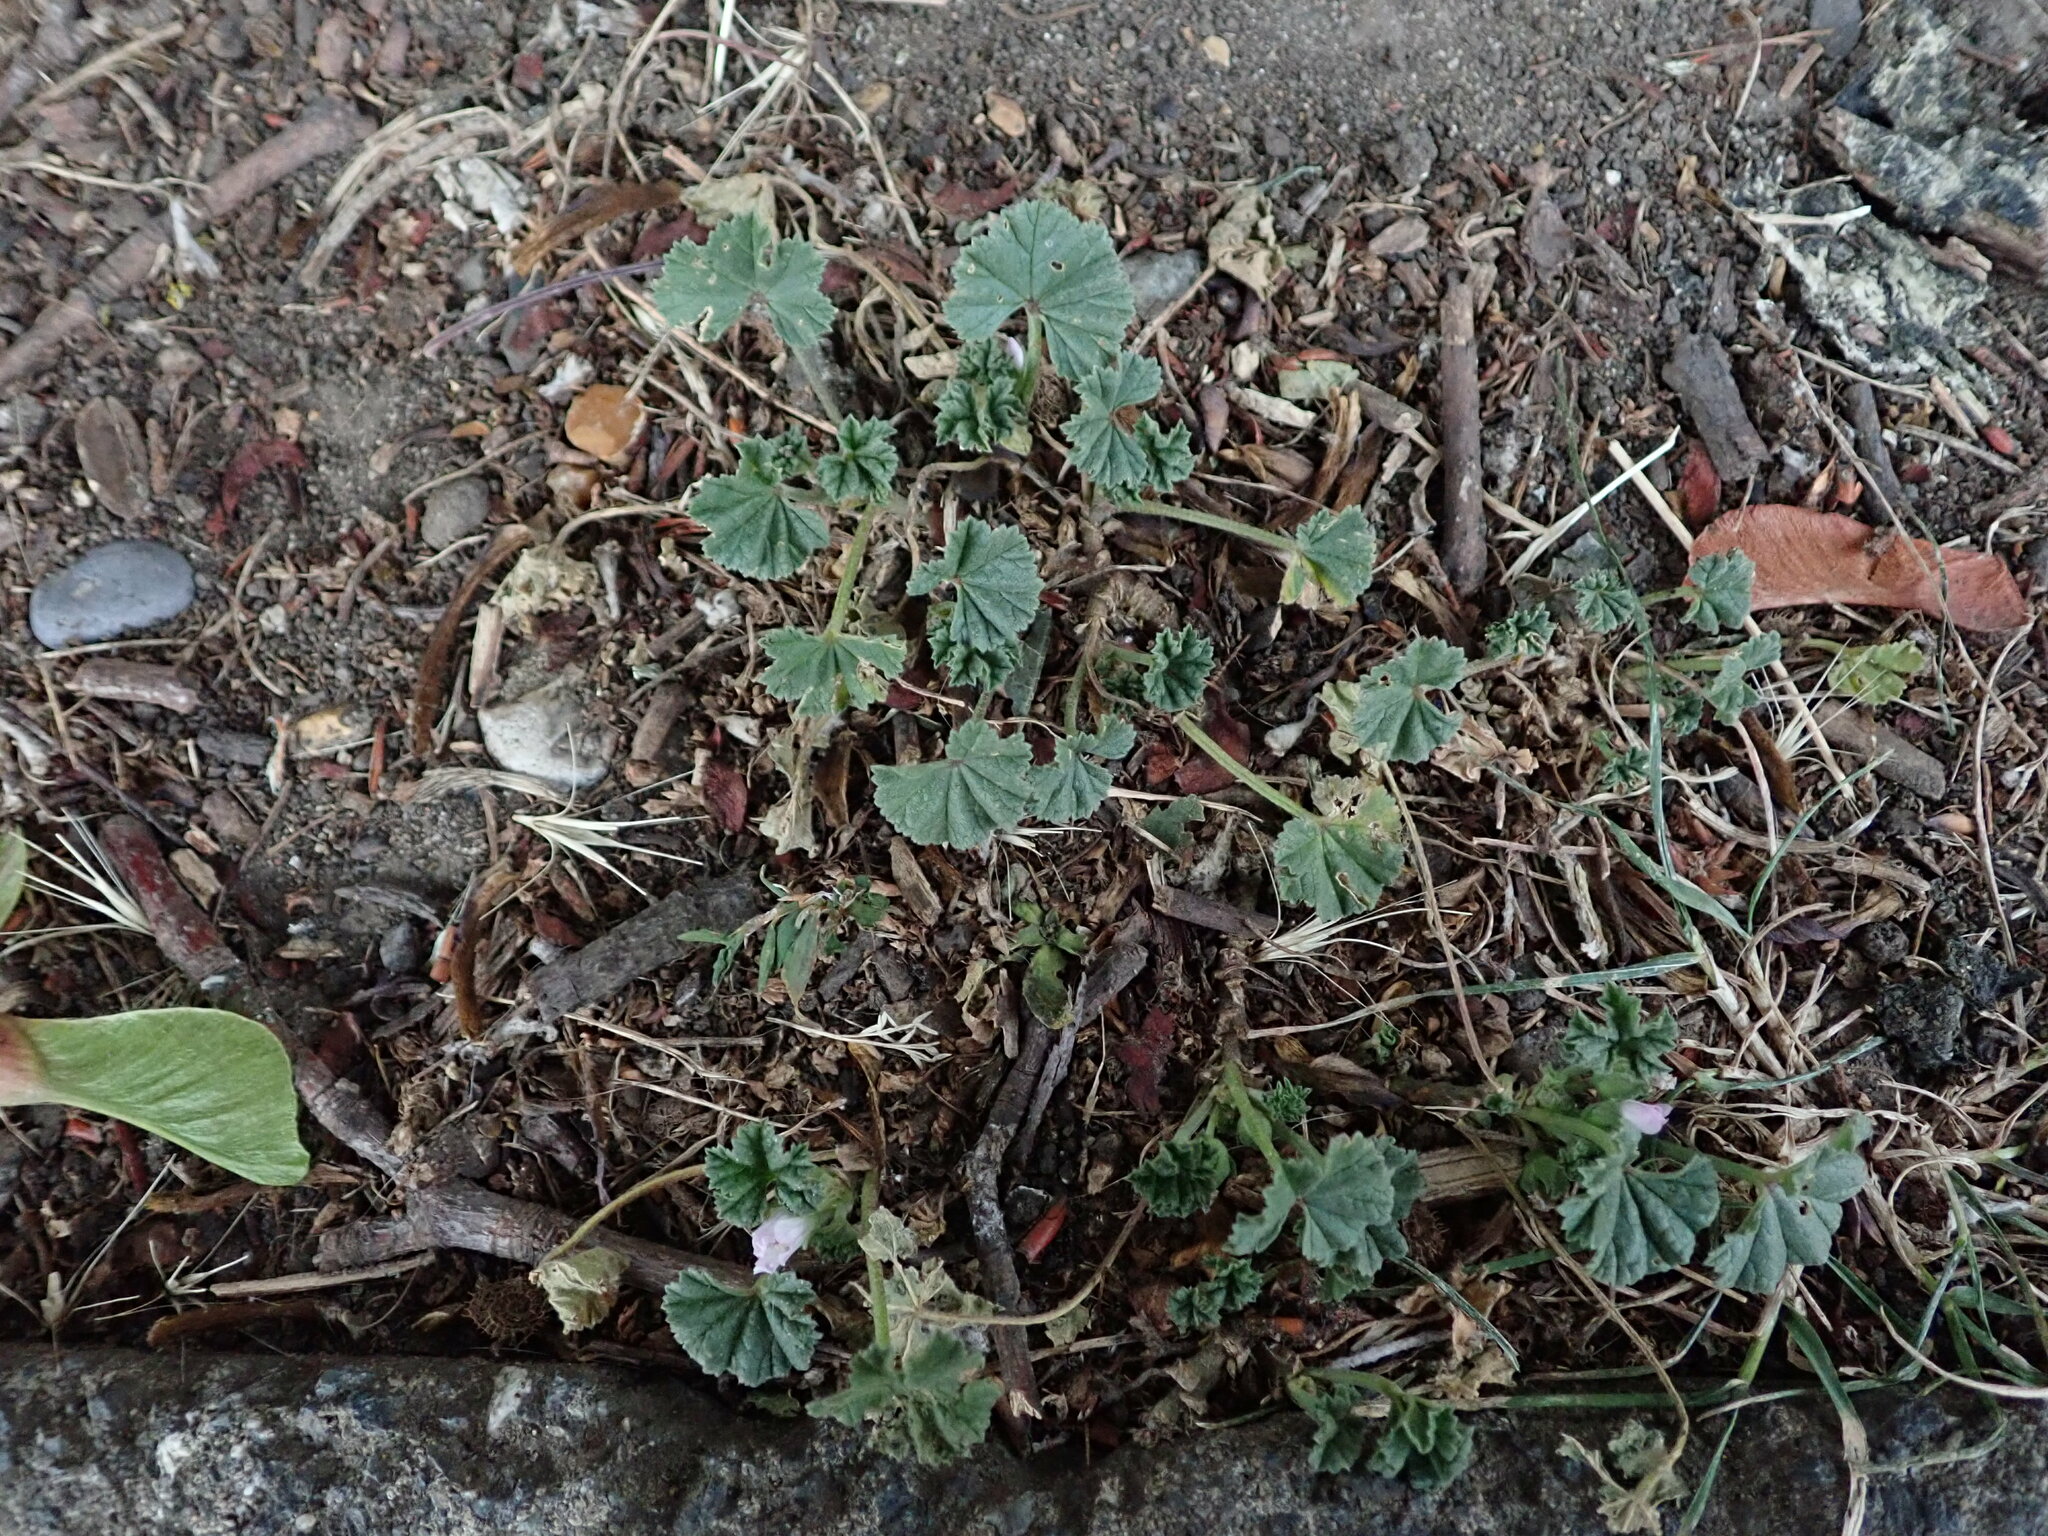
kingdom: Plantae
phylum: Tracheophyta
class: Magnoliopsida
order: Malvales
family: Malvaceae
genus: Malva
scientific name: Malva neglecta
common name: Common mallow
